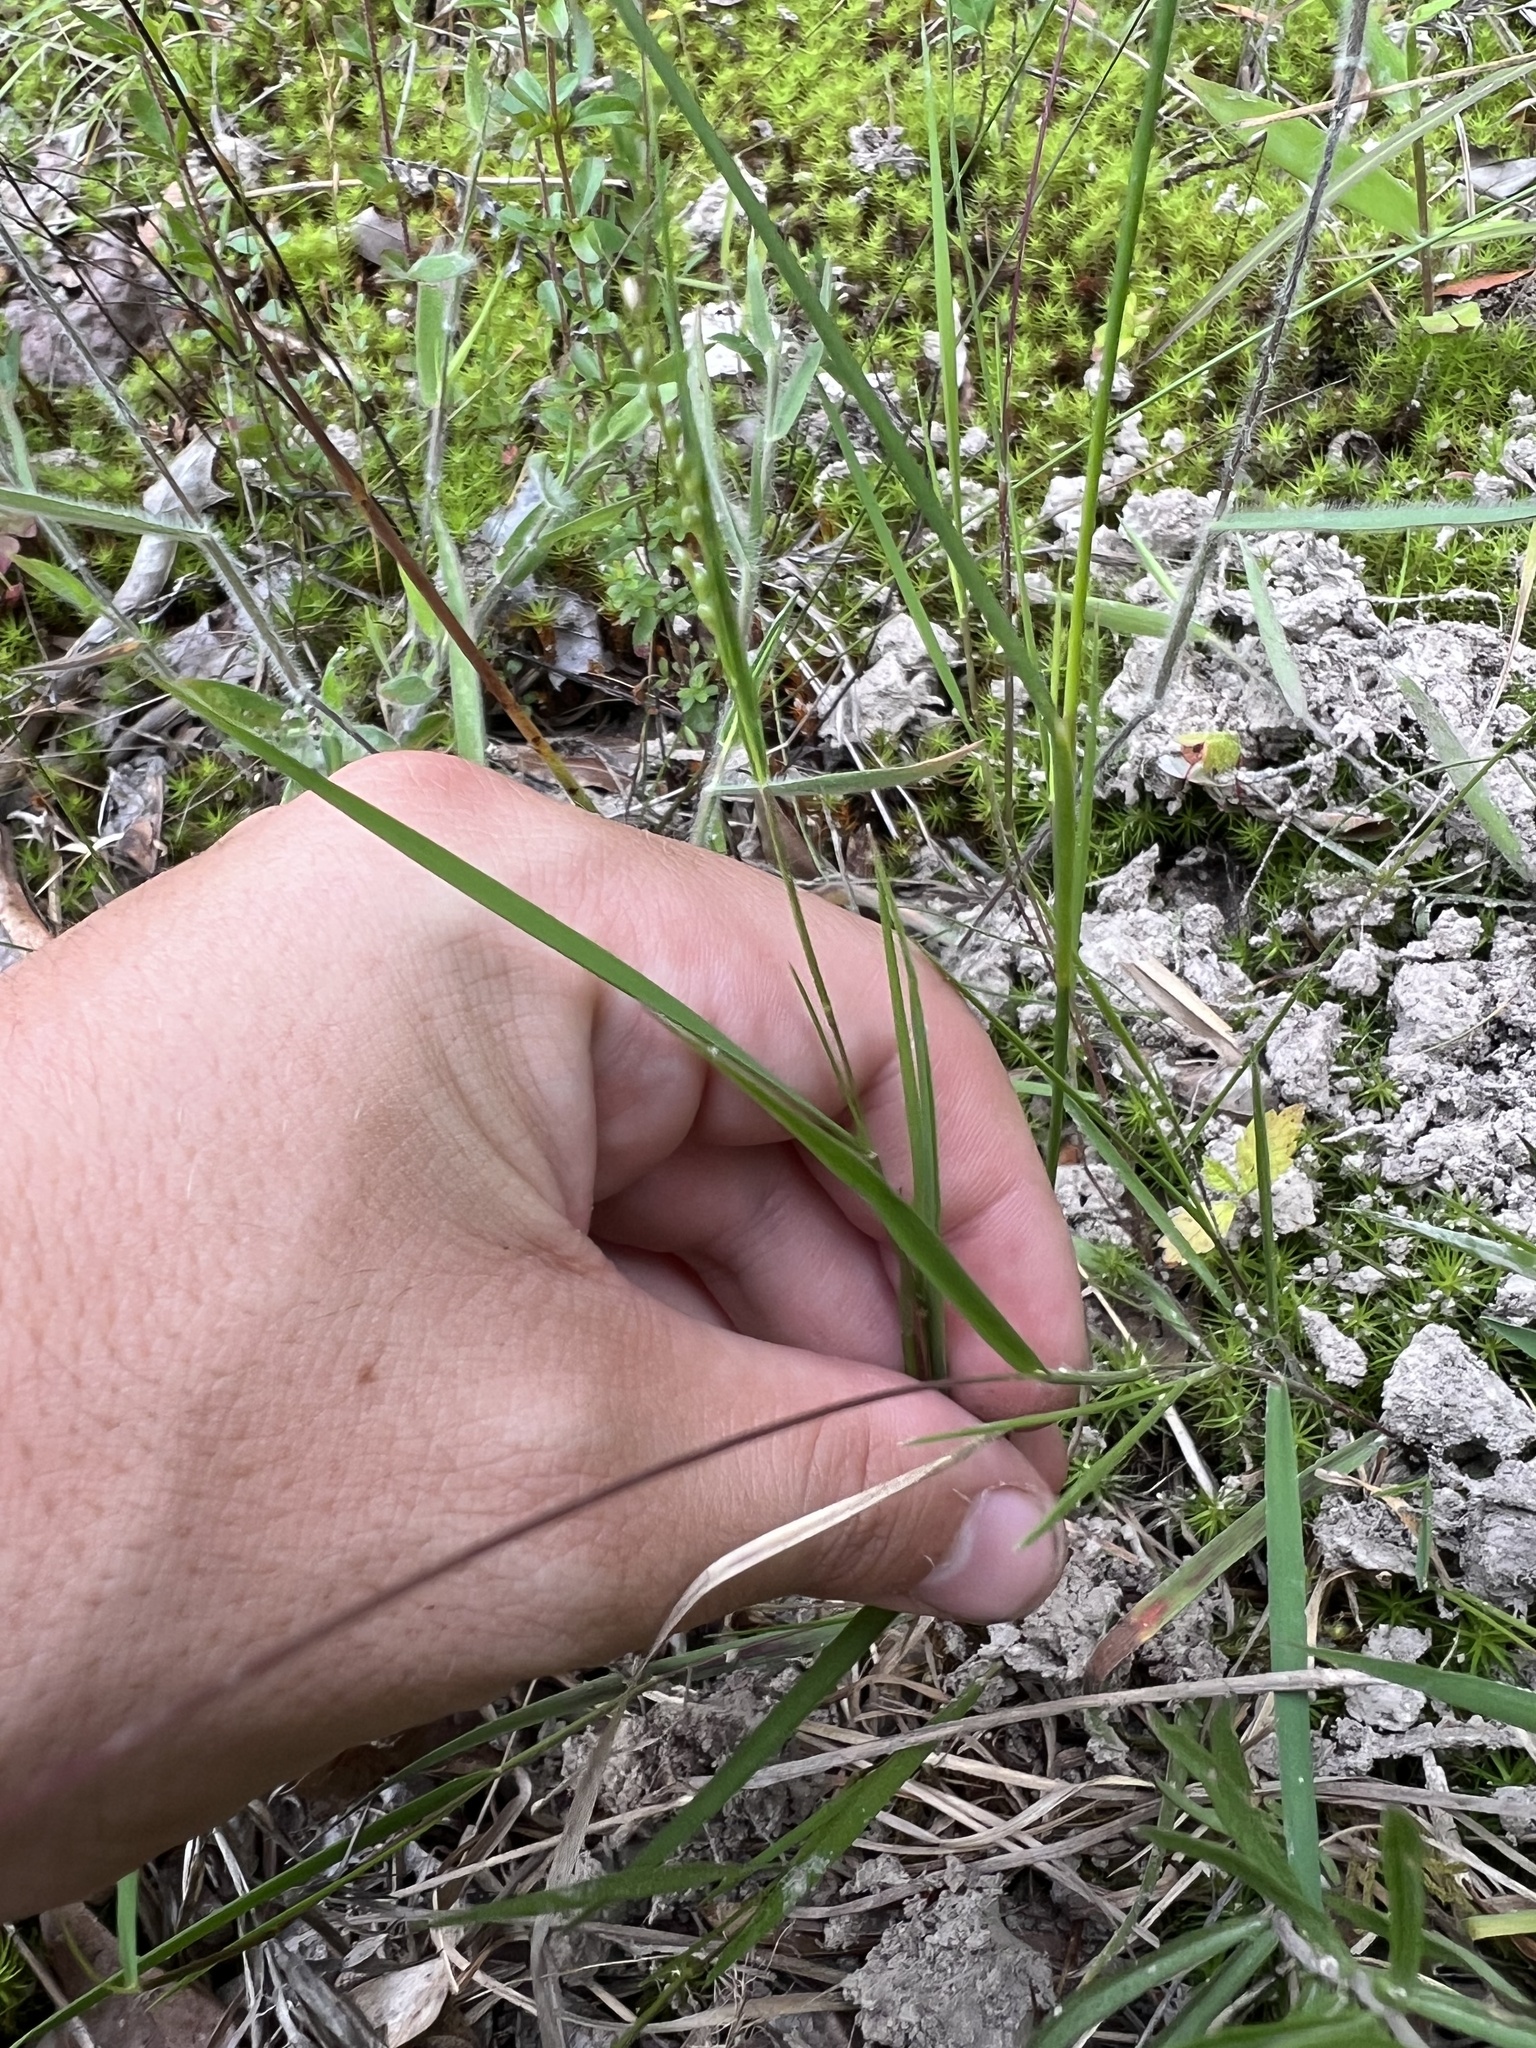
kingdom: Plantae
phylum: Tracheophyta
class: Liliopsida
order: Poales
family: Poaceae
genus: Dichanthelium
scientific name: Dichanthelium bicknellii
